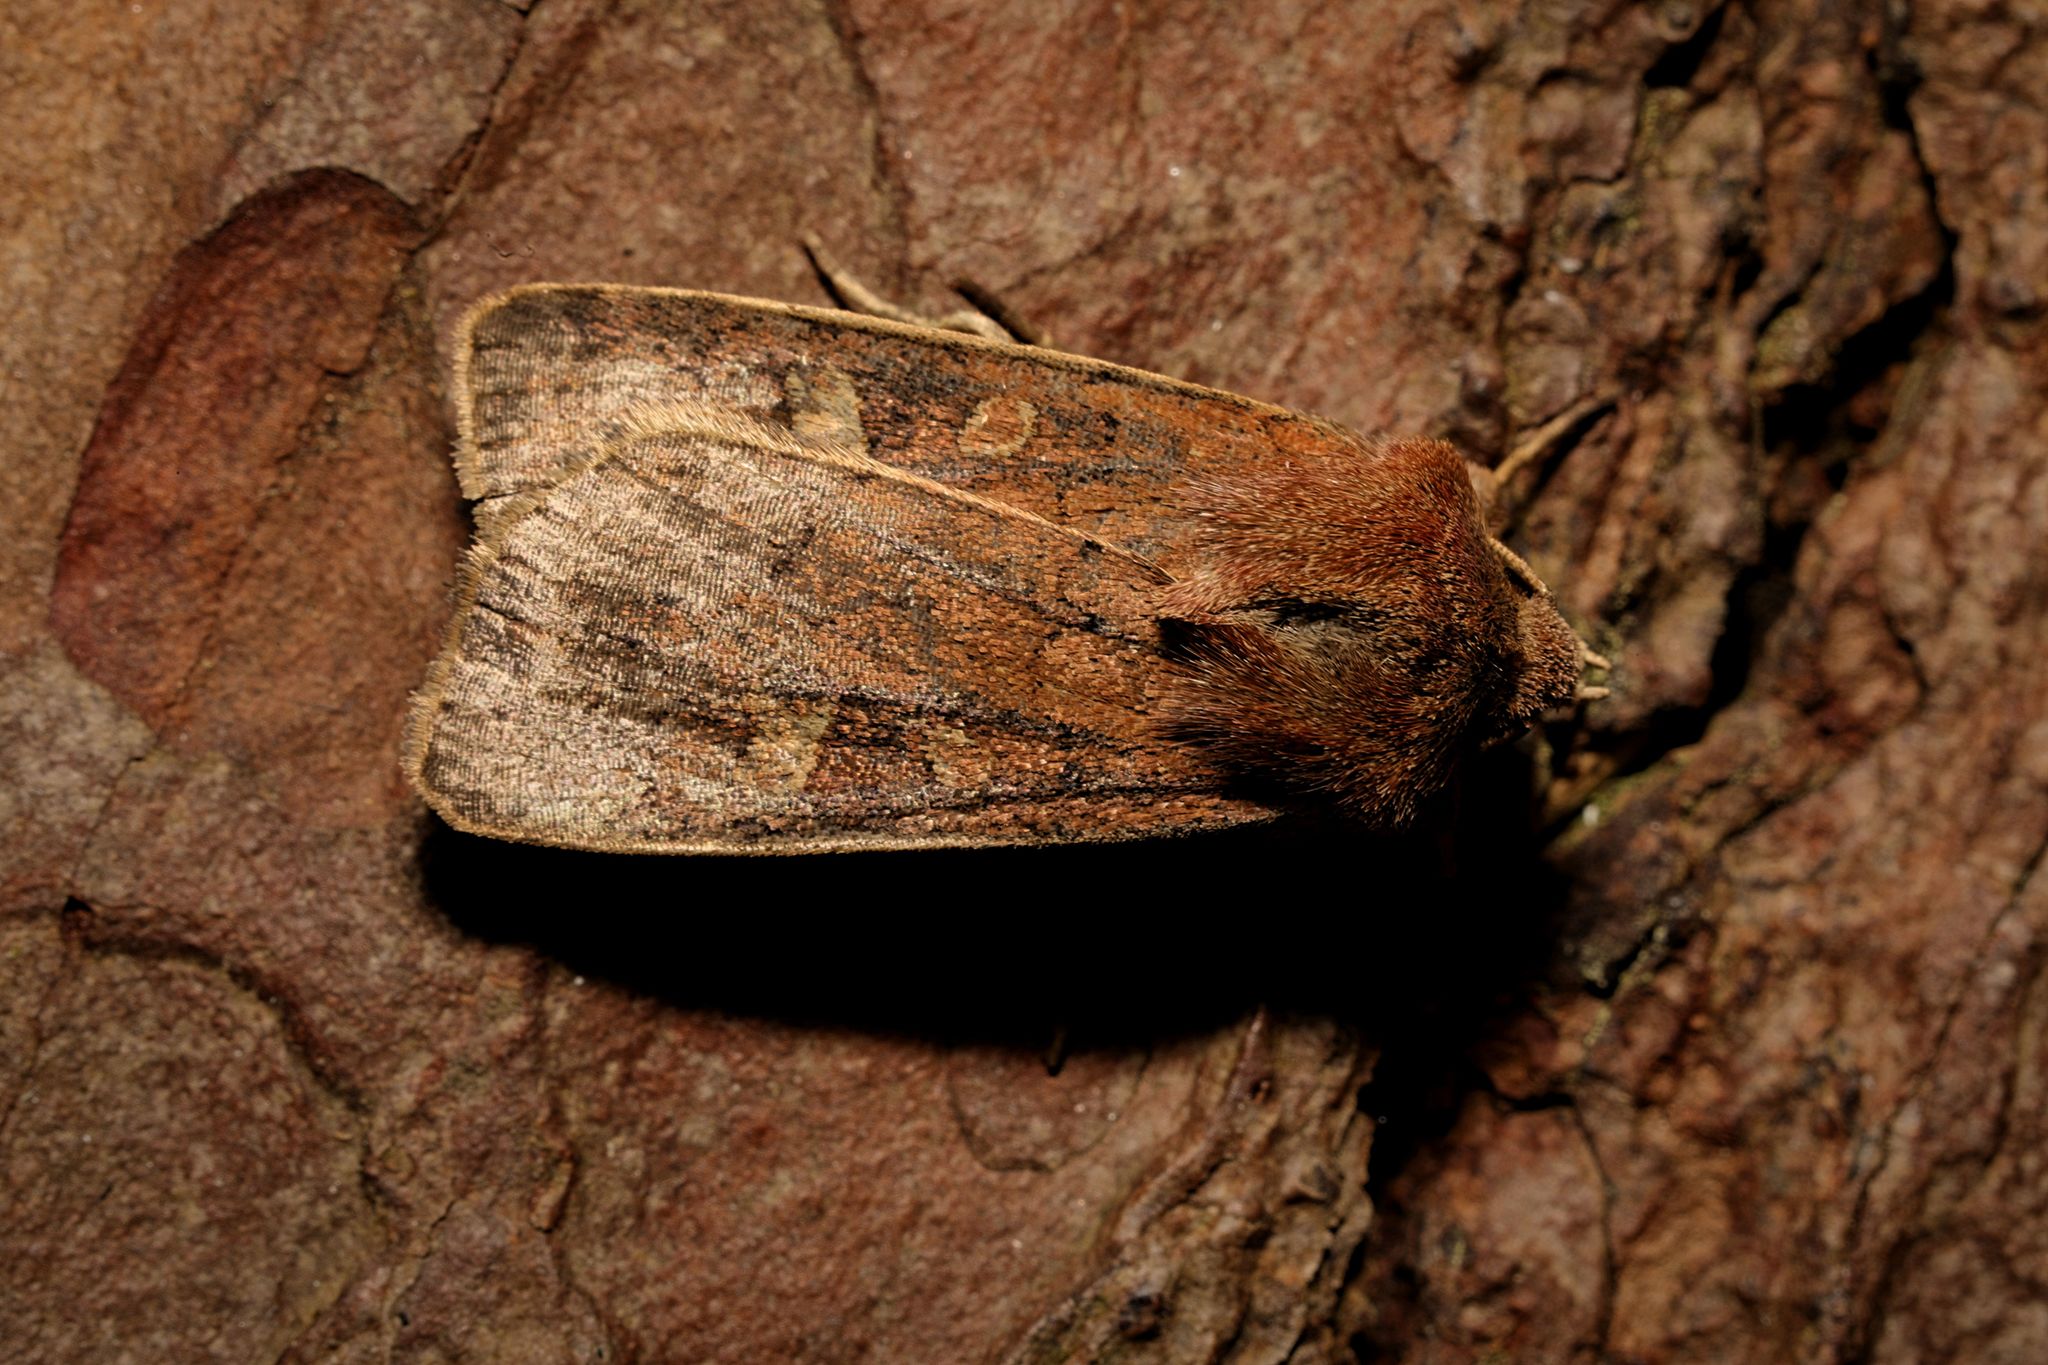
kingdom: Animalia
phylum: Arthropoda
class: Insecta
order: Lepidoptera
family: Noctuidae
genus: Xestia
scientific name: Xestia xanthographa
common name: Square-spot rustic
